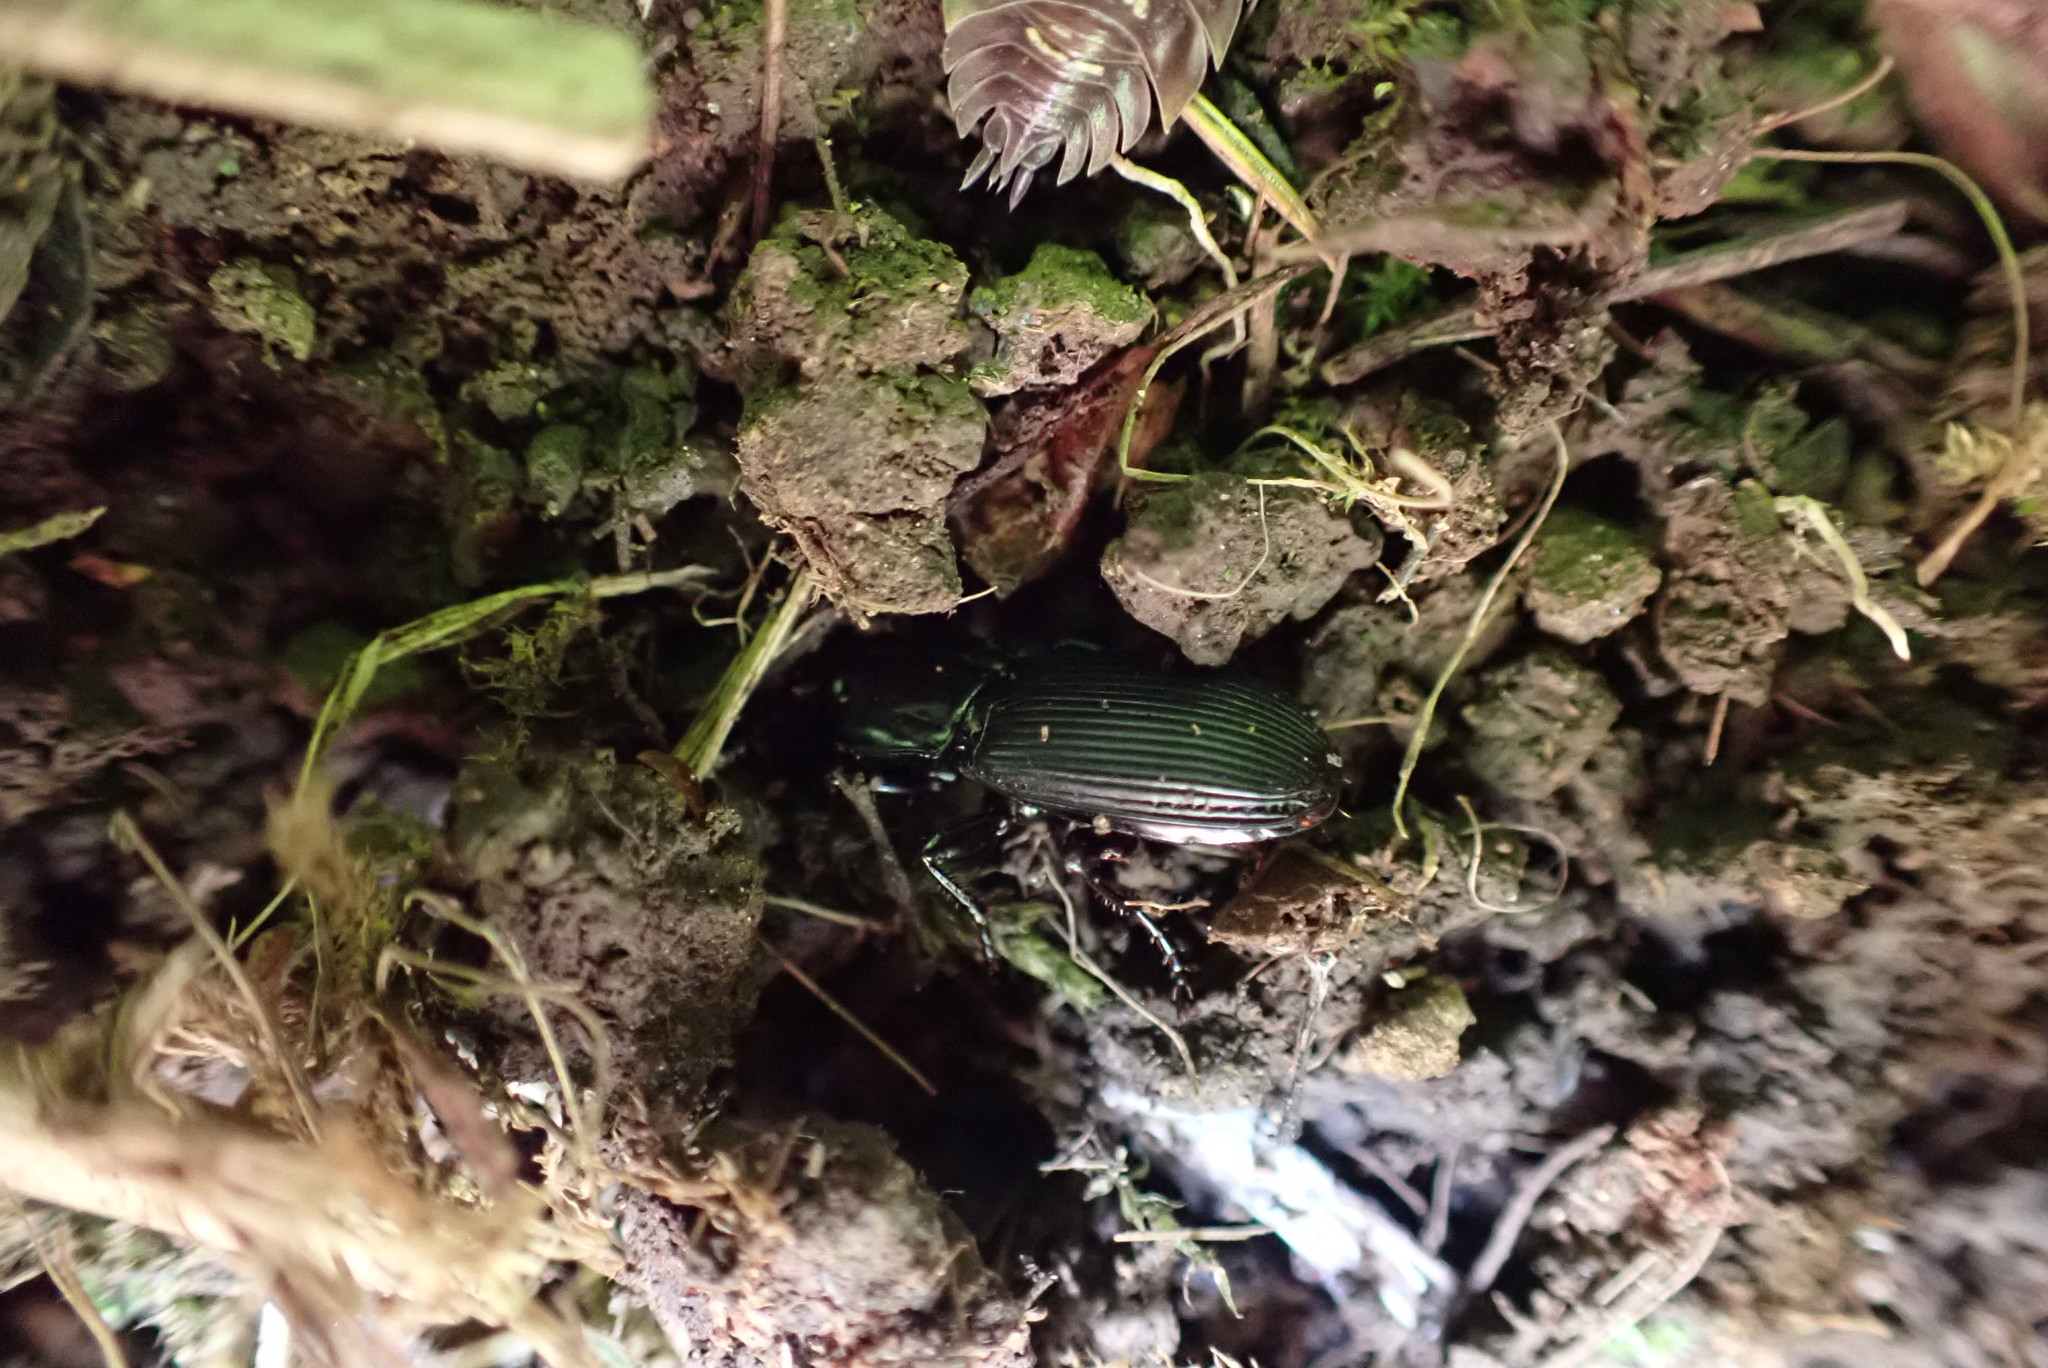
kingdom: Animalia
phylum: Arthropoda
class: Insecta
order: Coleoptera
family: Carabidae
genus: Pterostichus
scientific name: Pterostichus algidus
